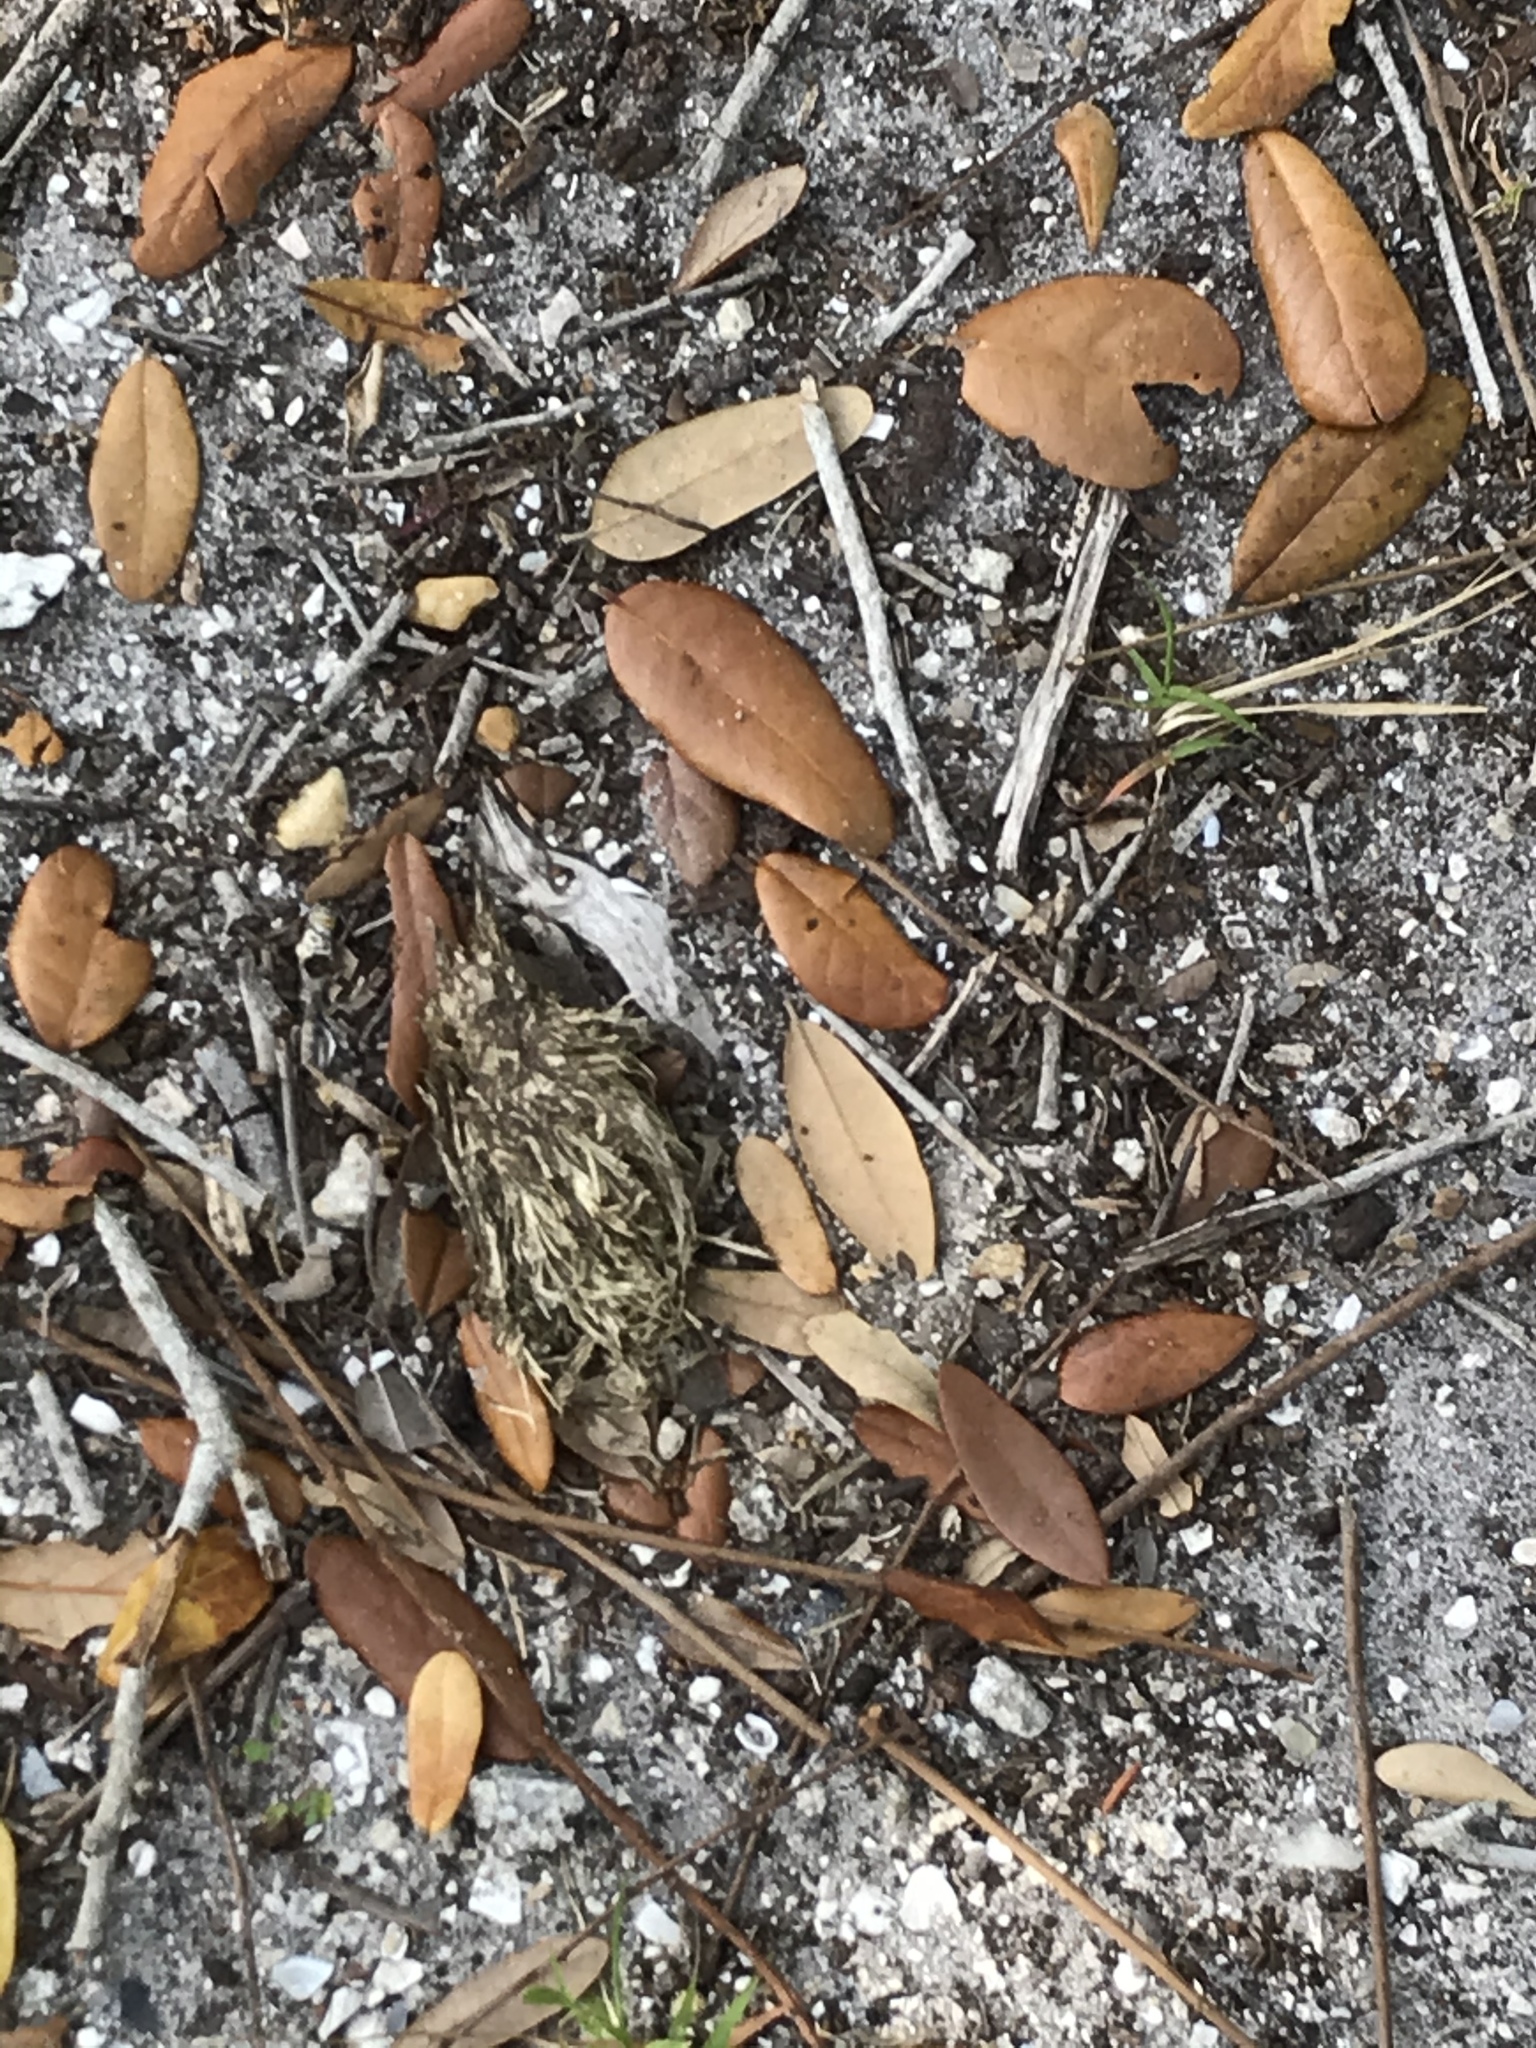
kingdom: Animalia
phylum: Chordata
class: Testudines
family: Testudinidae
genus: Gopherus
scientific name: Gopherus polyphemus
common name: Florida gopher tortoise
